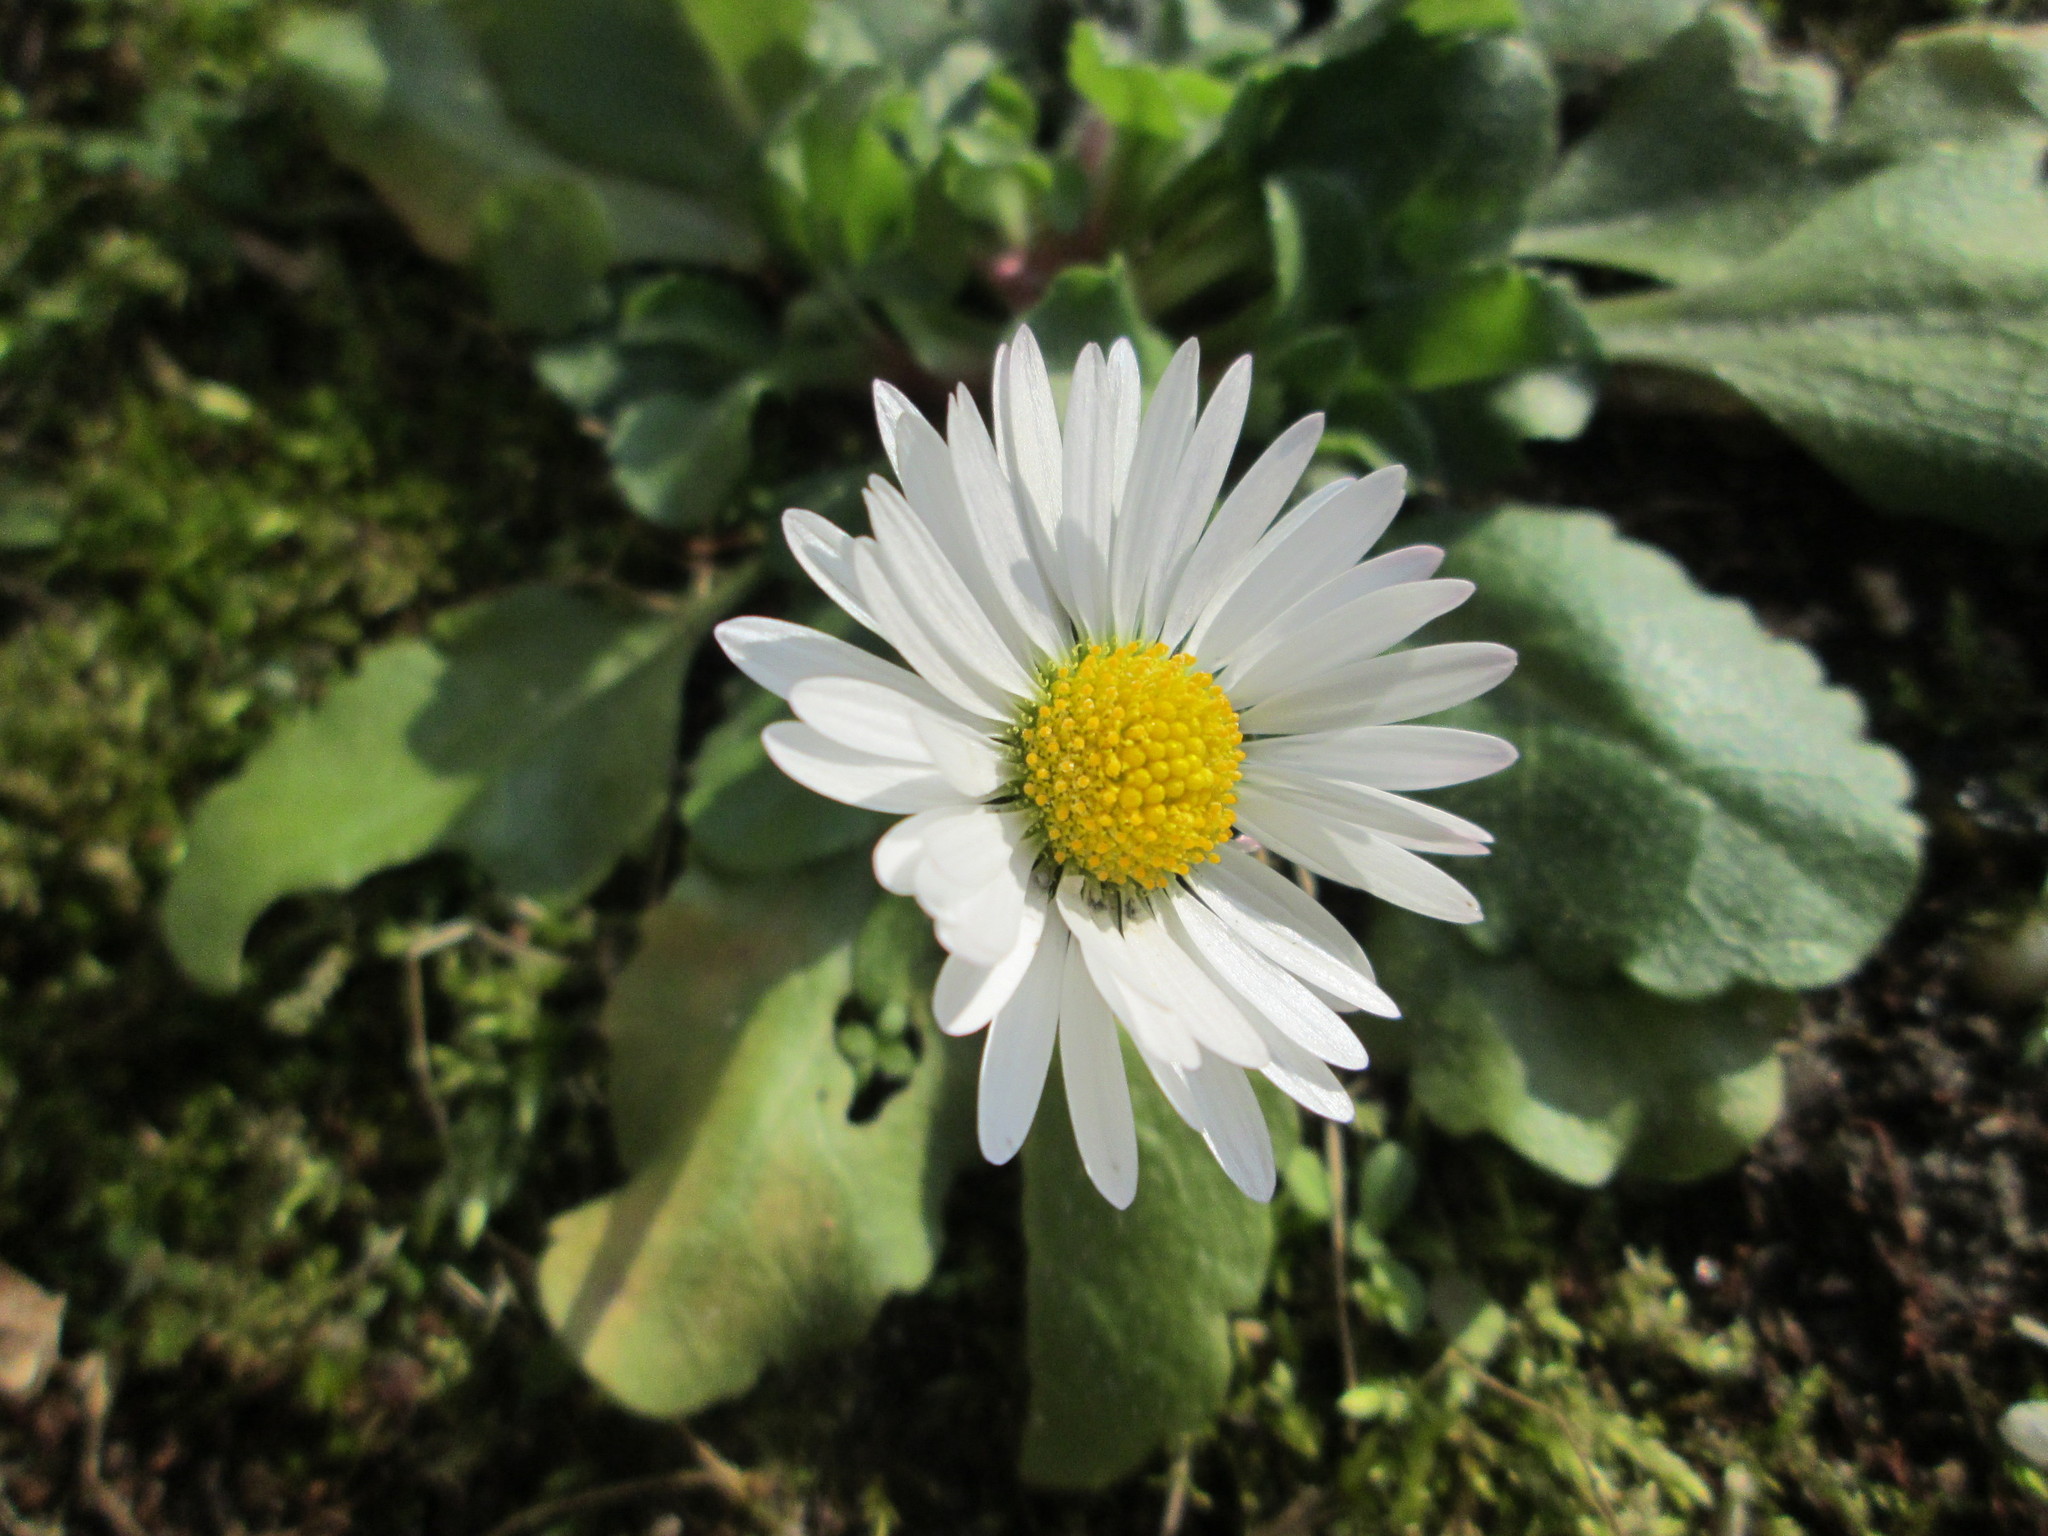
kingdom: Plantae
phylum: Tracheophyta
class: Magnoliopsida
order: Asterales
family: Asteraceae
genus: Bellis
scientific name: Bellis perennis
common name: Lawndaisy
